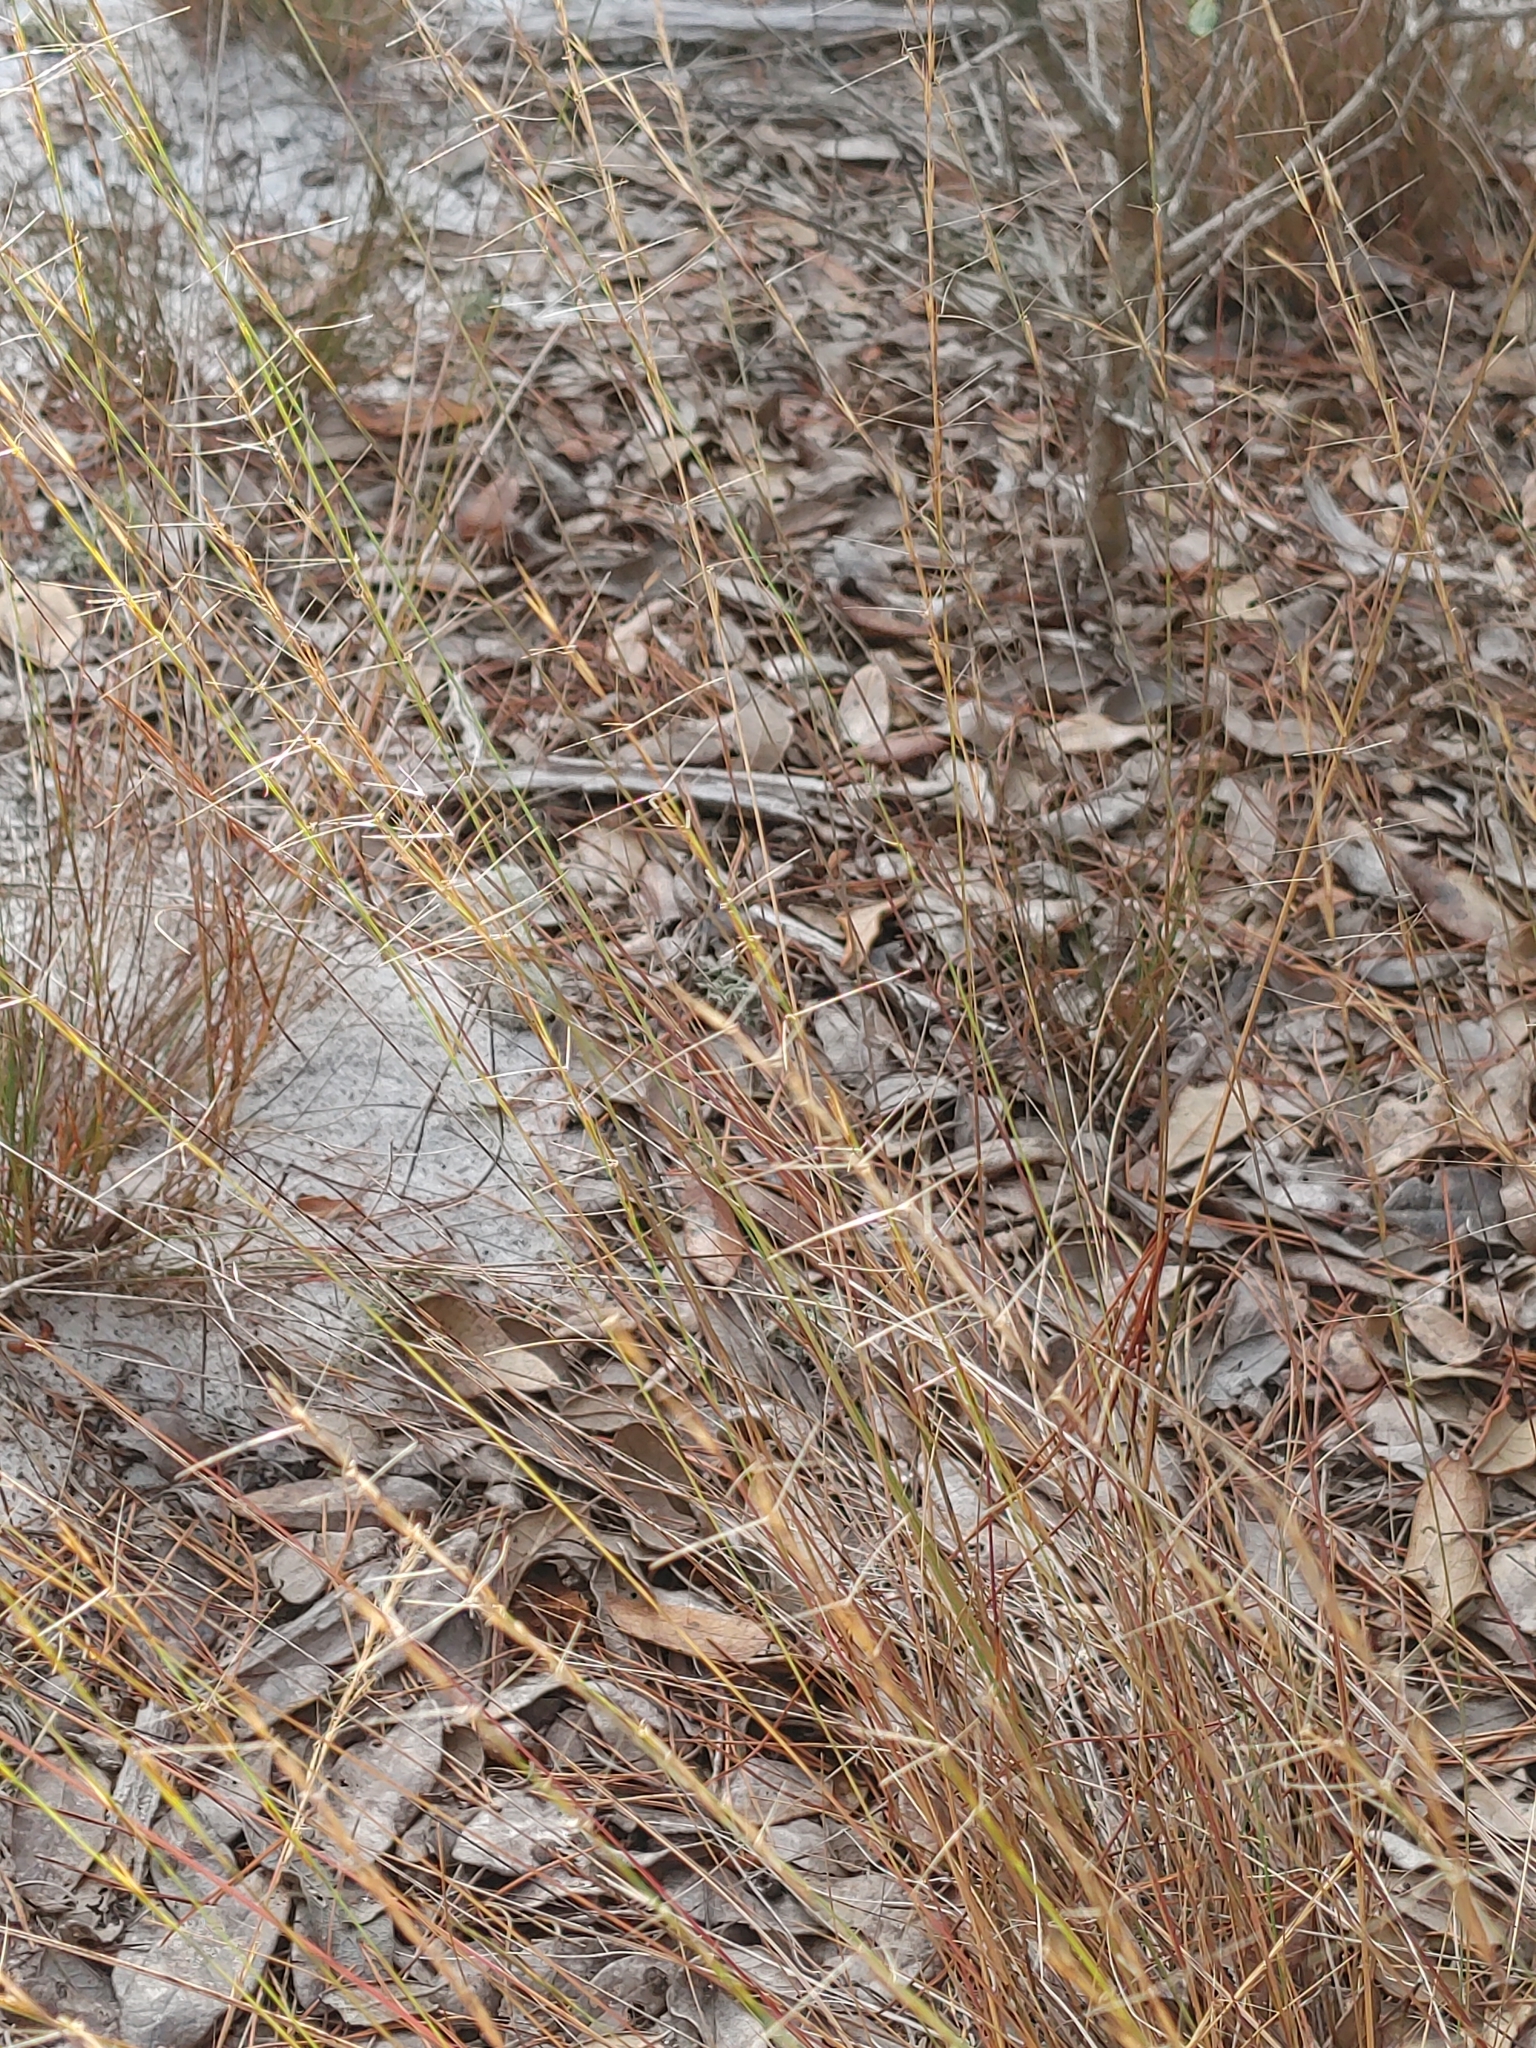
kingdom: Plantae
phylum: Tracheophyta
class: Liliopsida
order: Poales
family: Poaceae
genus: Aristida
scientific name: Aristida gyrans
